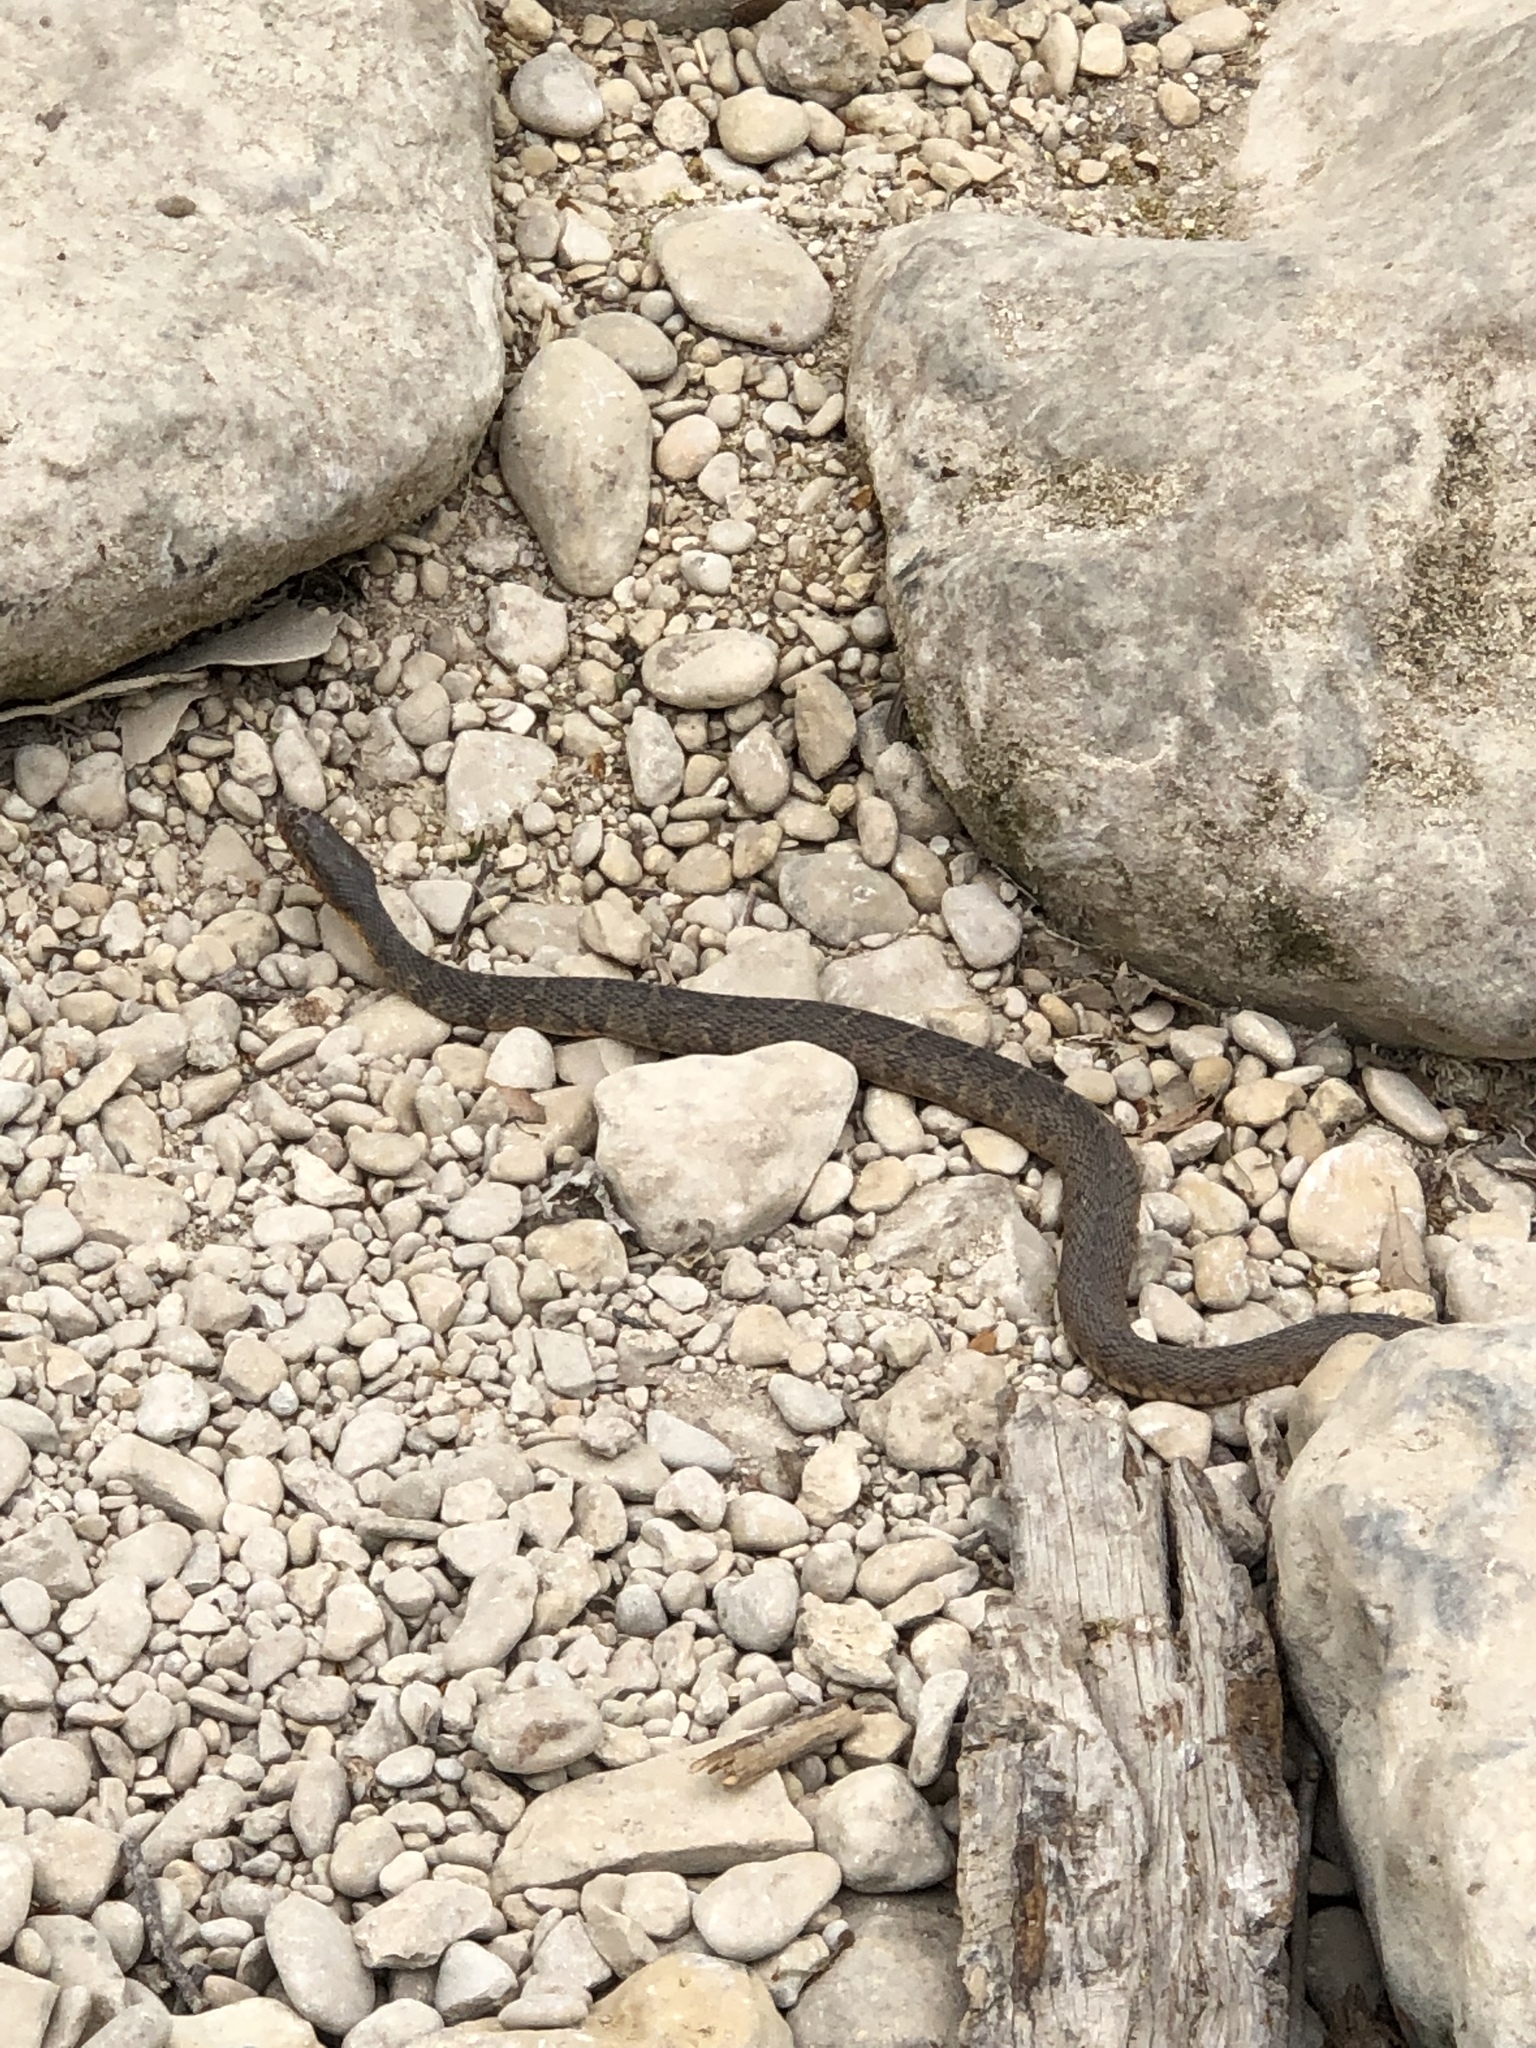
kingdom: Animalia
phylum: Chordata
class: Squamata
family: Colubridae
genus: Nerodia
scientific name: Nerodia erythrogaster
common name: Plainbelly water snake
